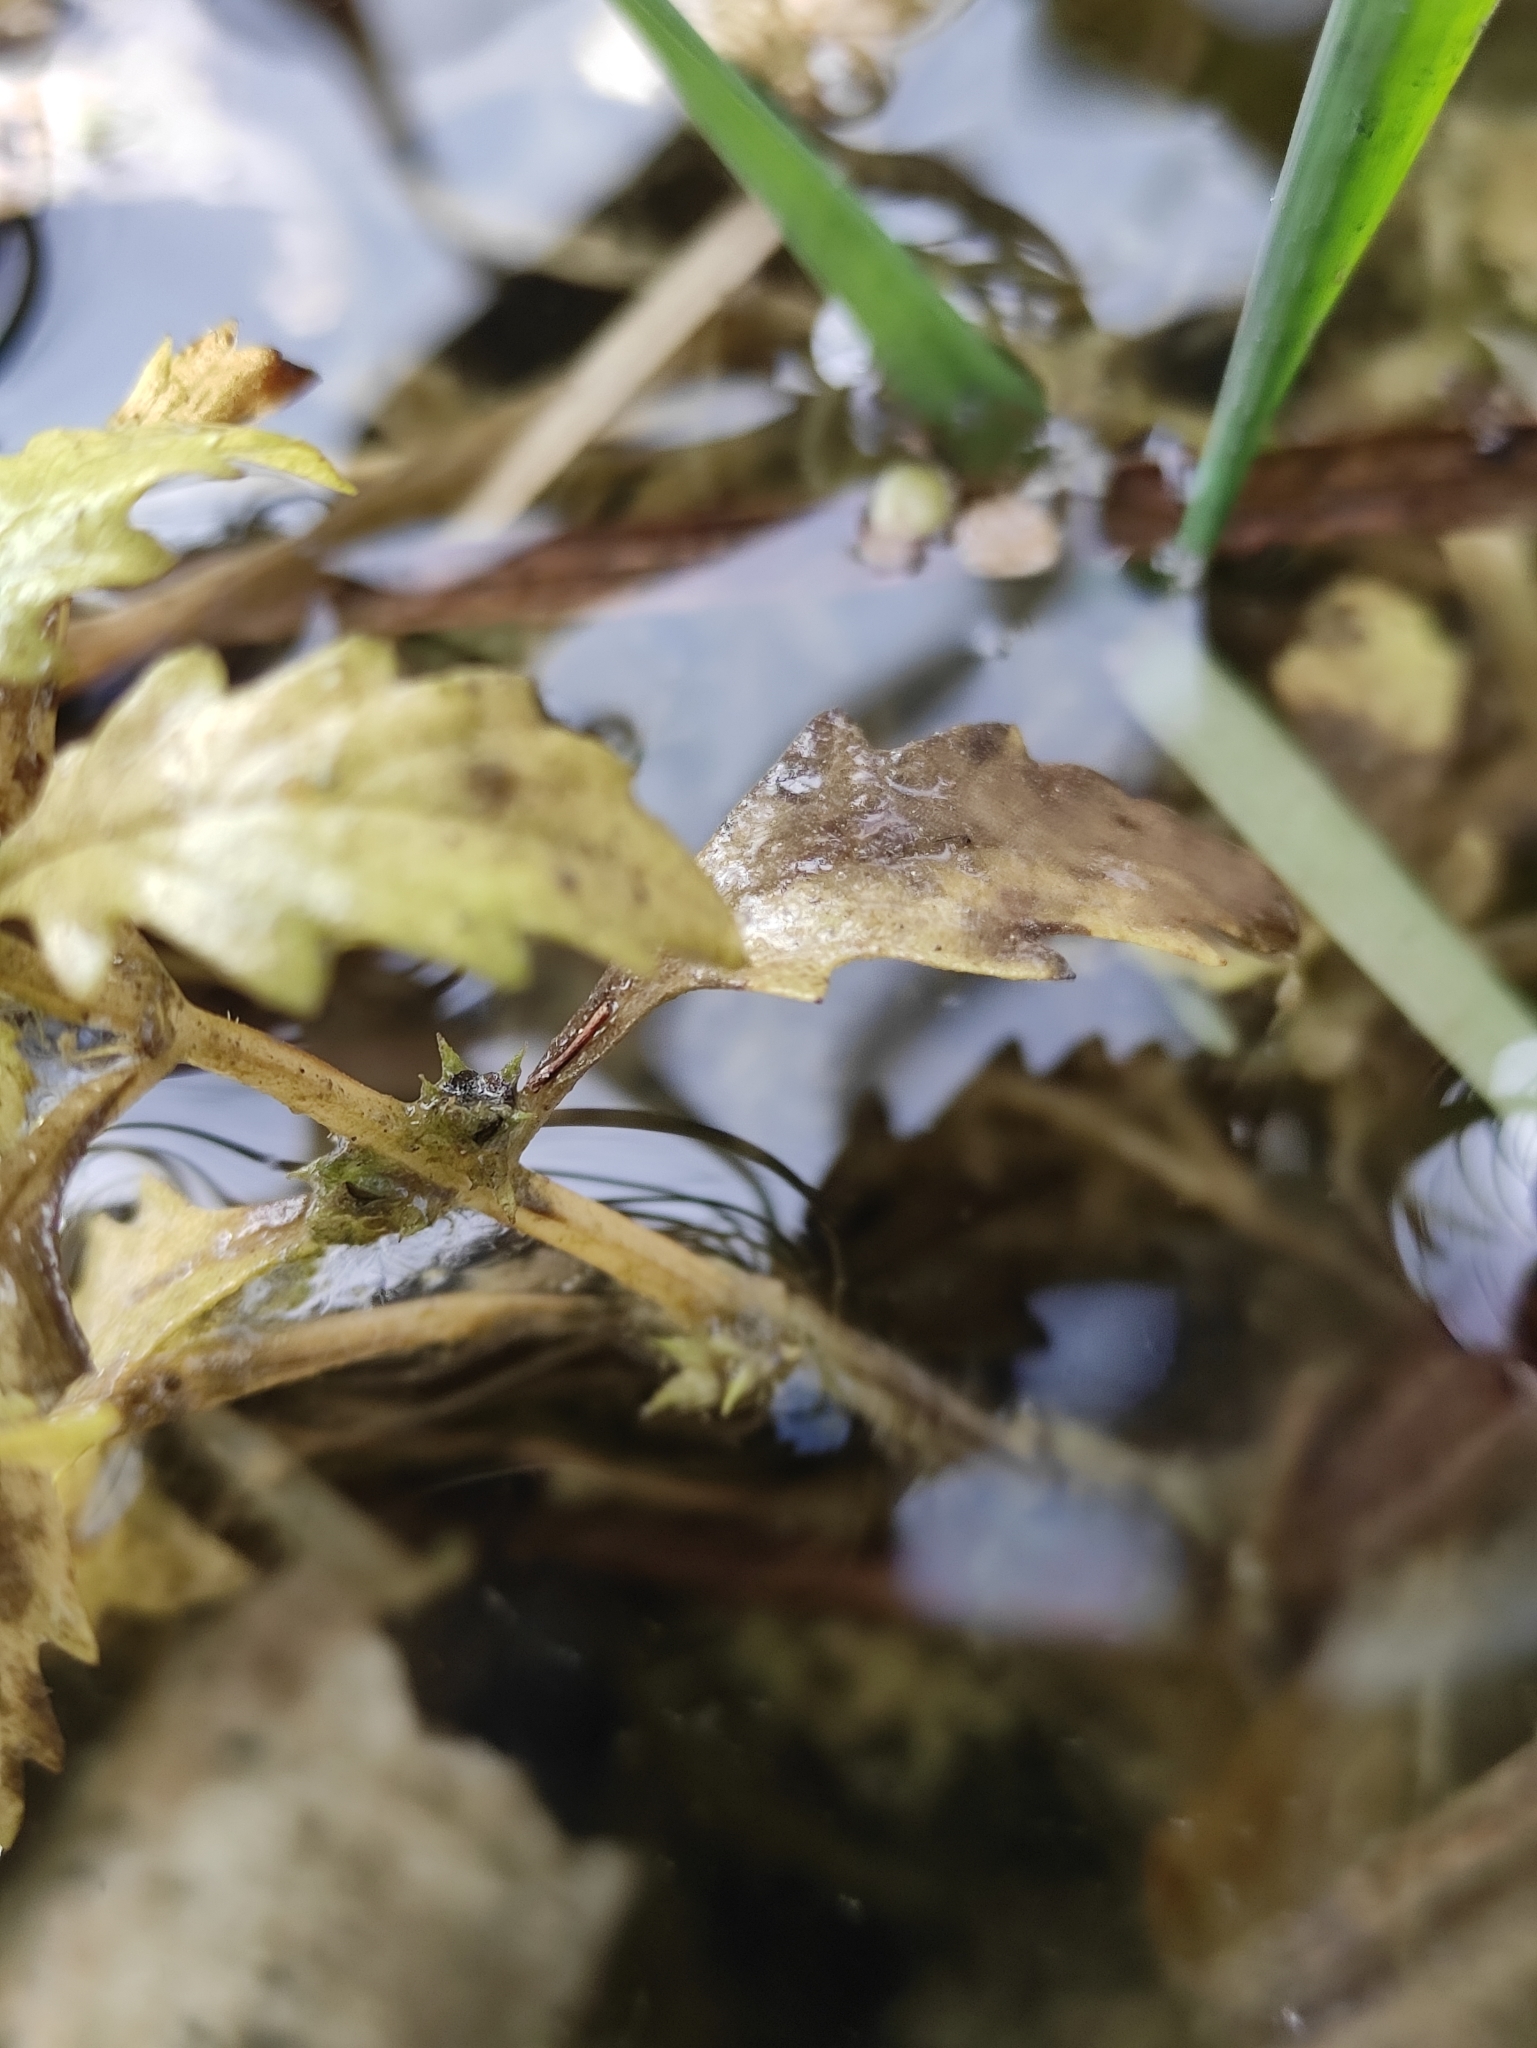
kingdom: Plantae
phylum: Tracheophyta
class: Magnoliopsida
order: Lamiales
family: Lamiaceae
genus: Lycopus
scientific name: Lycopus europaeus
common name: European bugleweed
